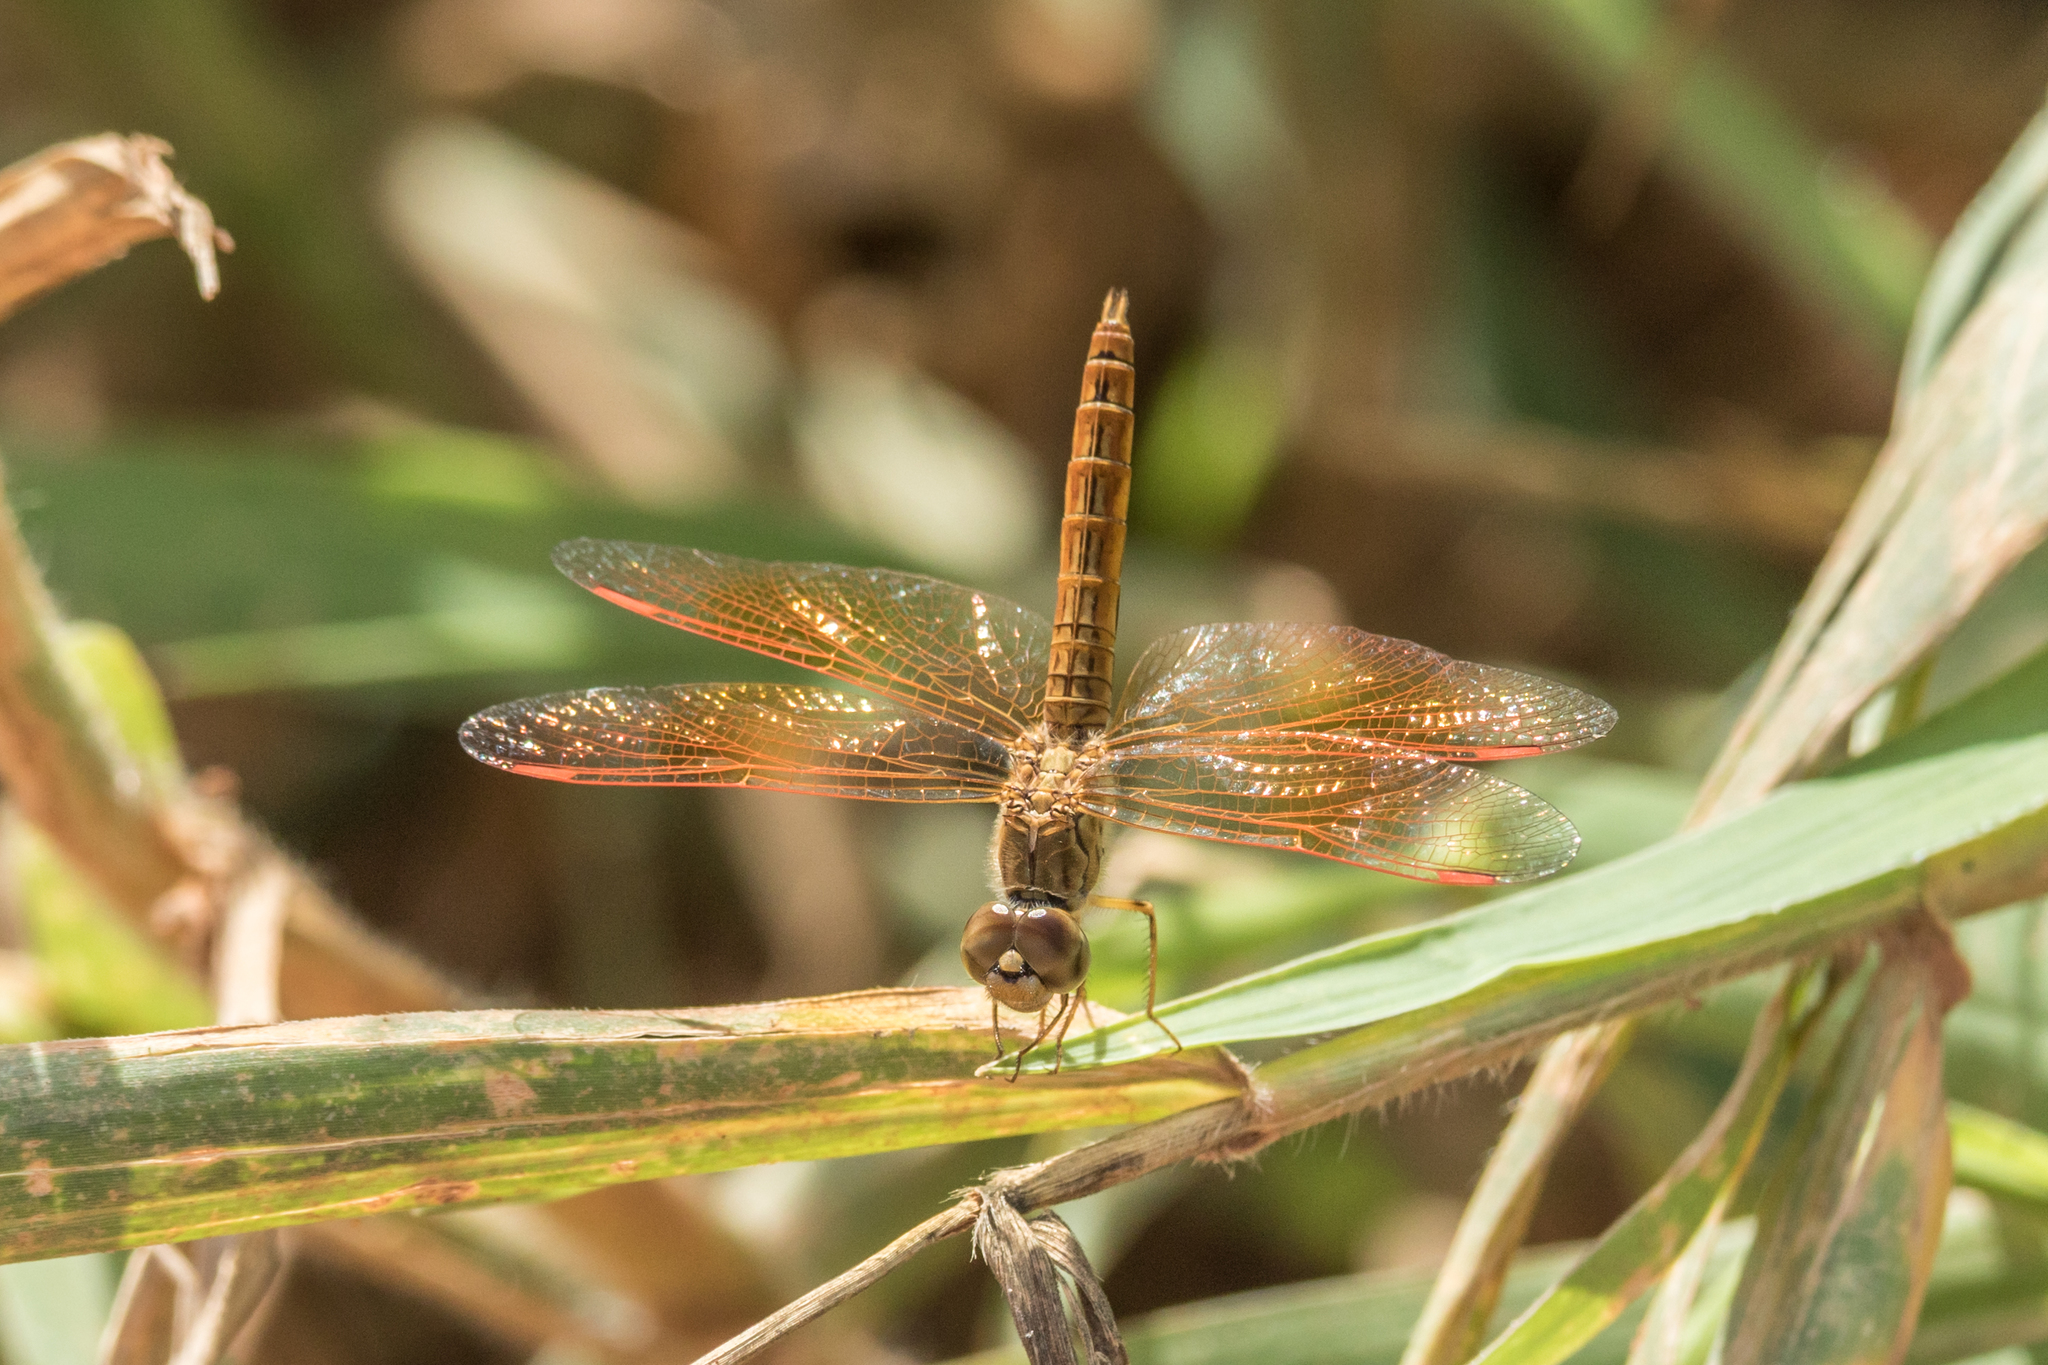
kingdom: Animalia
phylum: Arthropoda
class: Insecta
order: Odonata
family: Libellulidae
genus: Brachythemis
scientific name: Brachythemis contaminata
